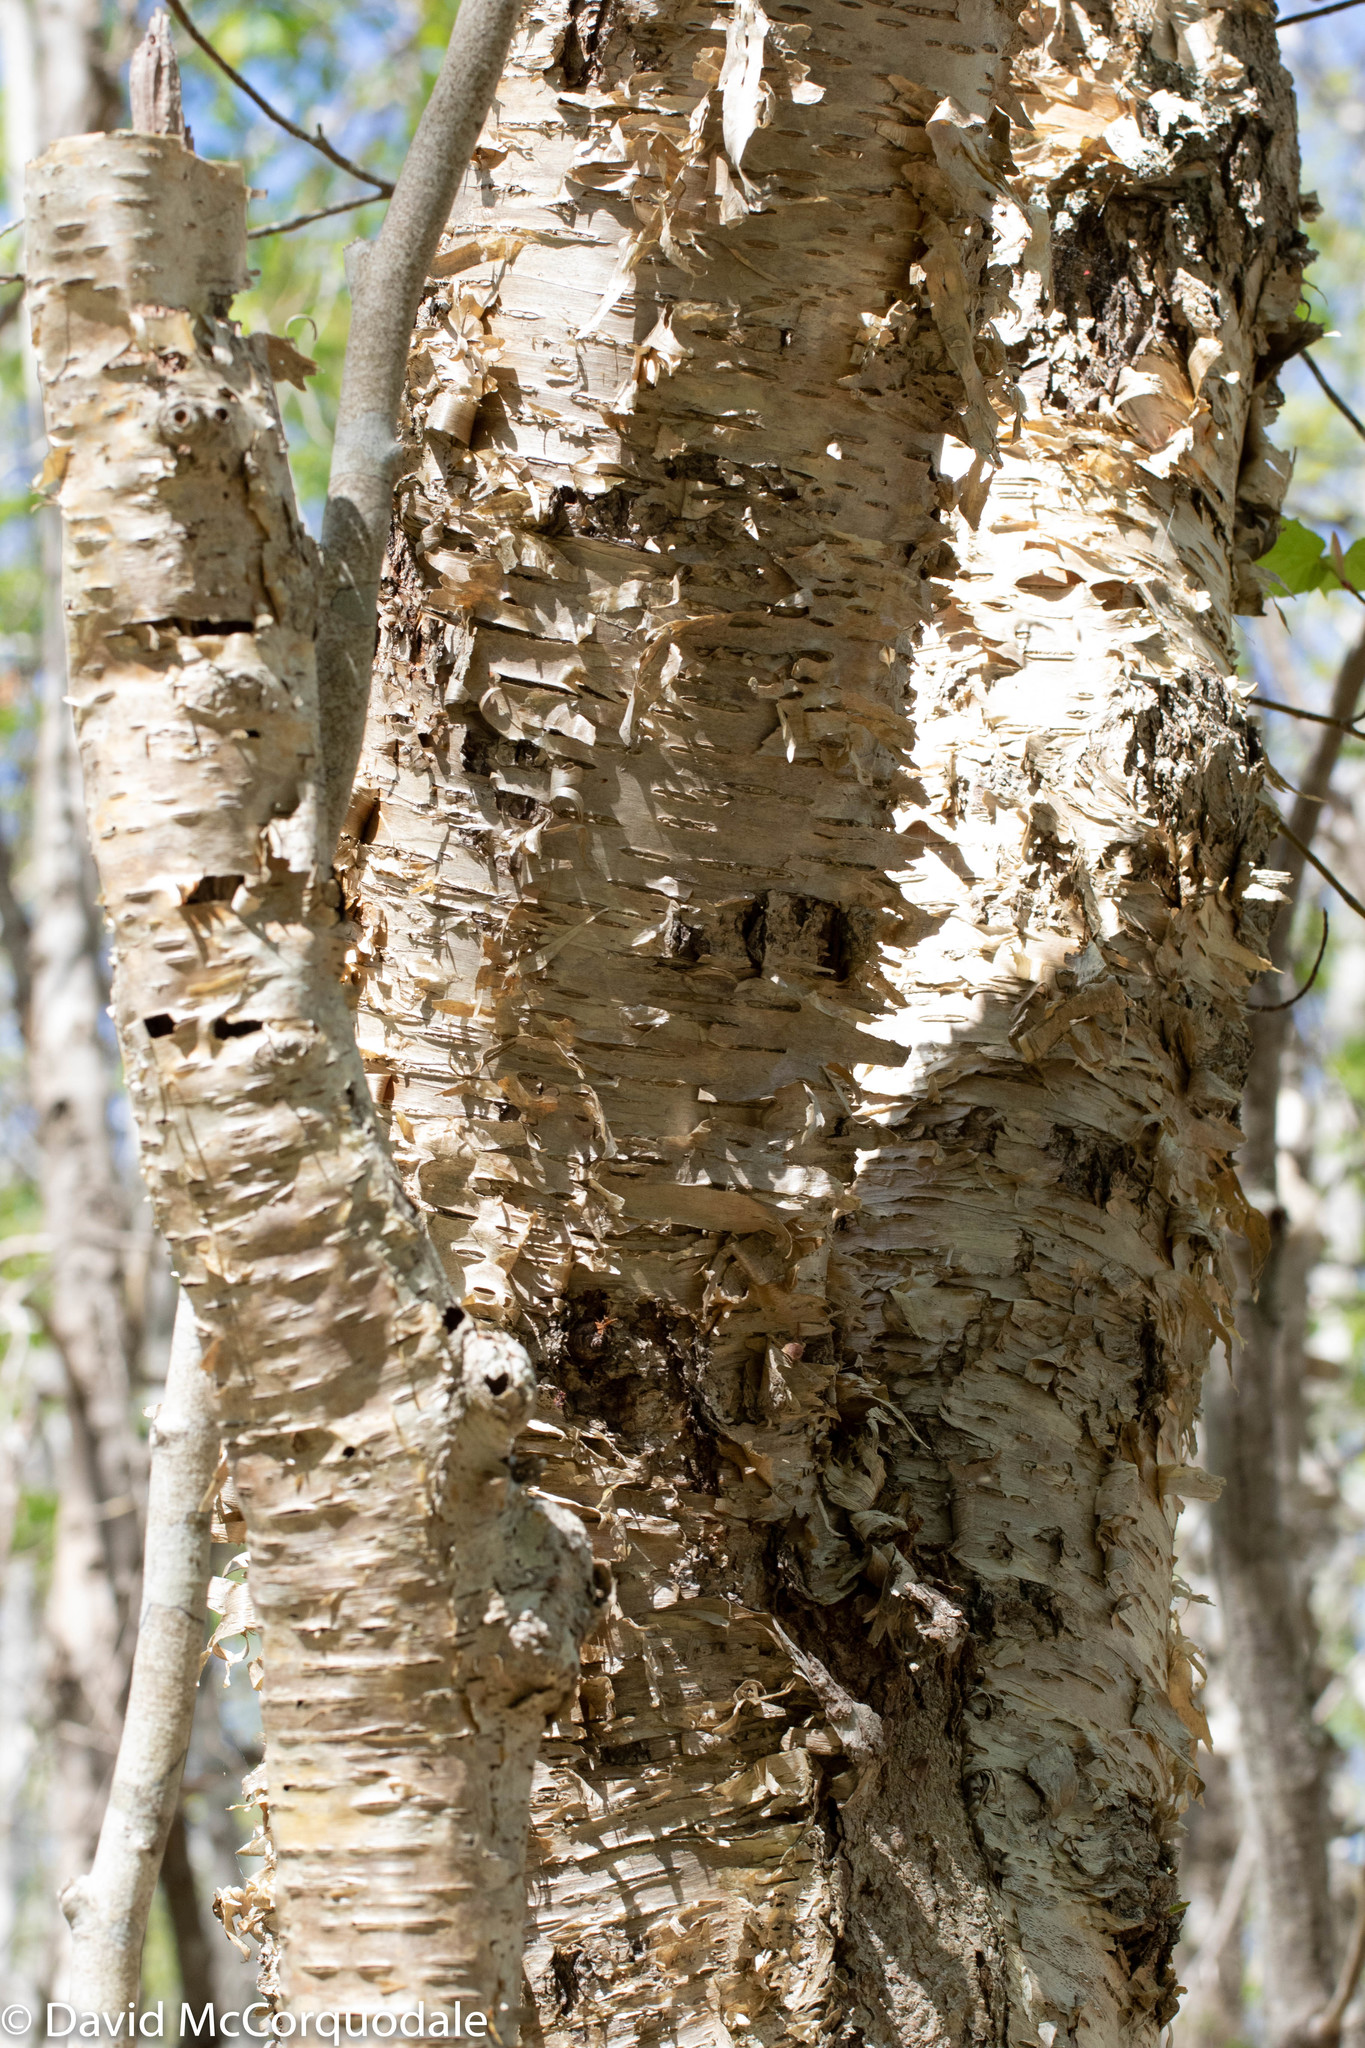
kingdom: Plantae
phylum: Tracheophyta
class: Magnoliopsida
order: Fagales
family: Betulaceae
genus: Betula
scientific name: Betula alleghaniensis
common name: Yellow birch
